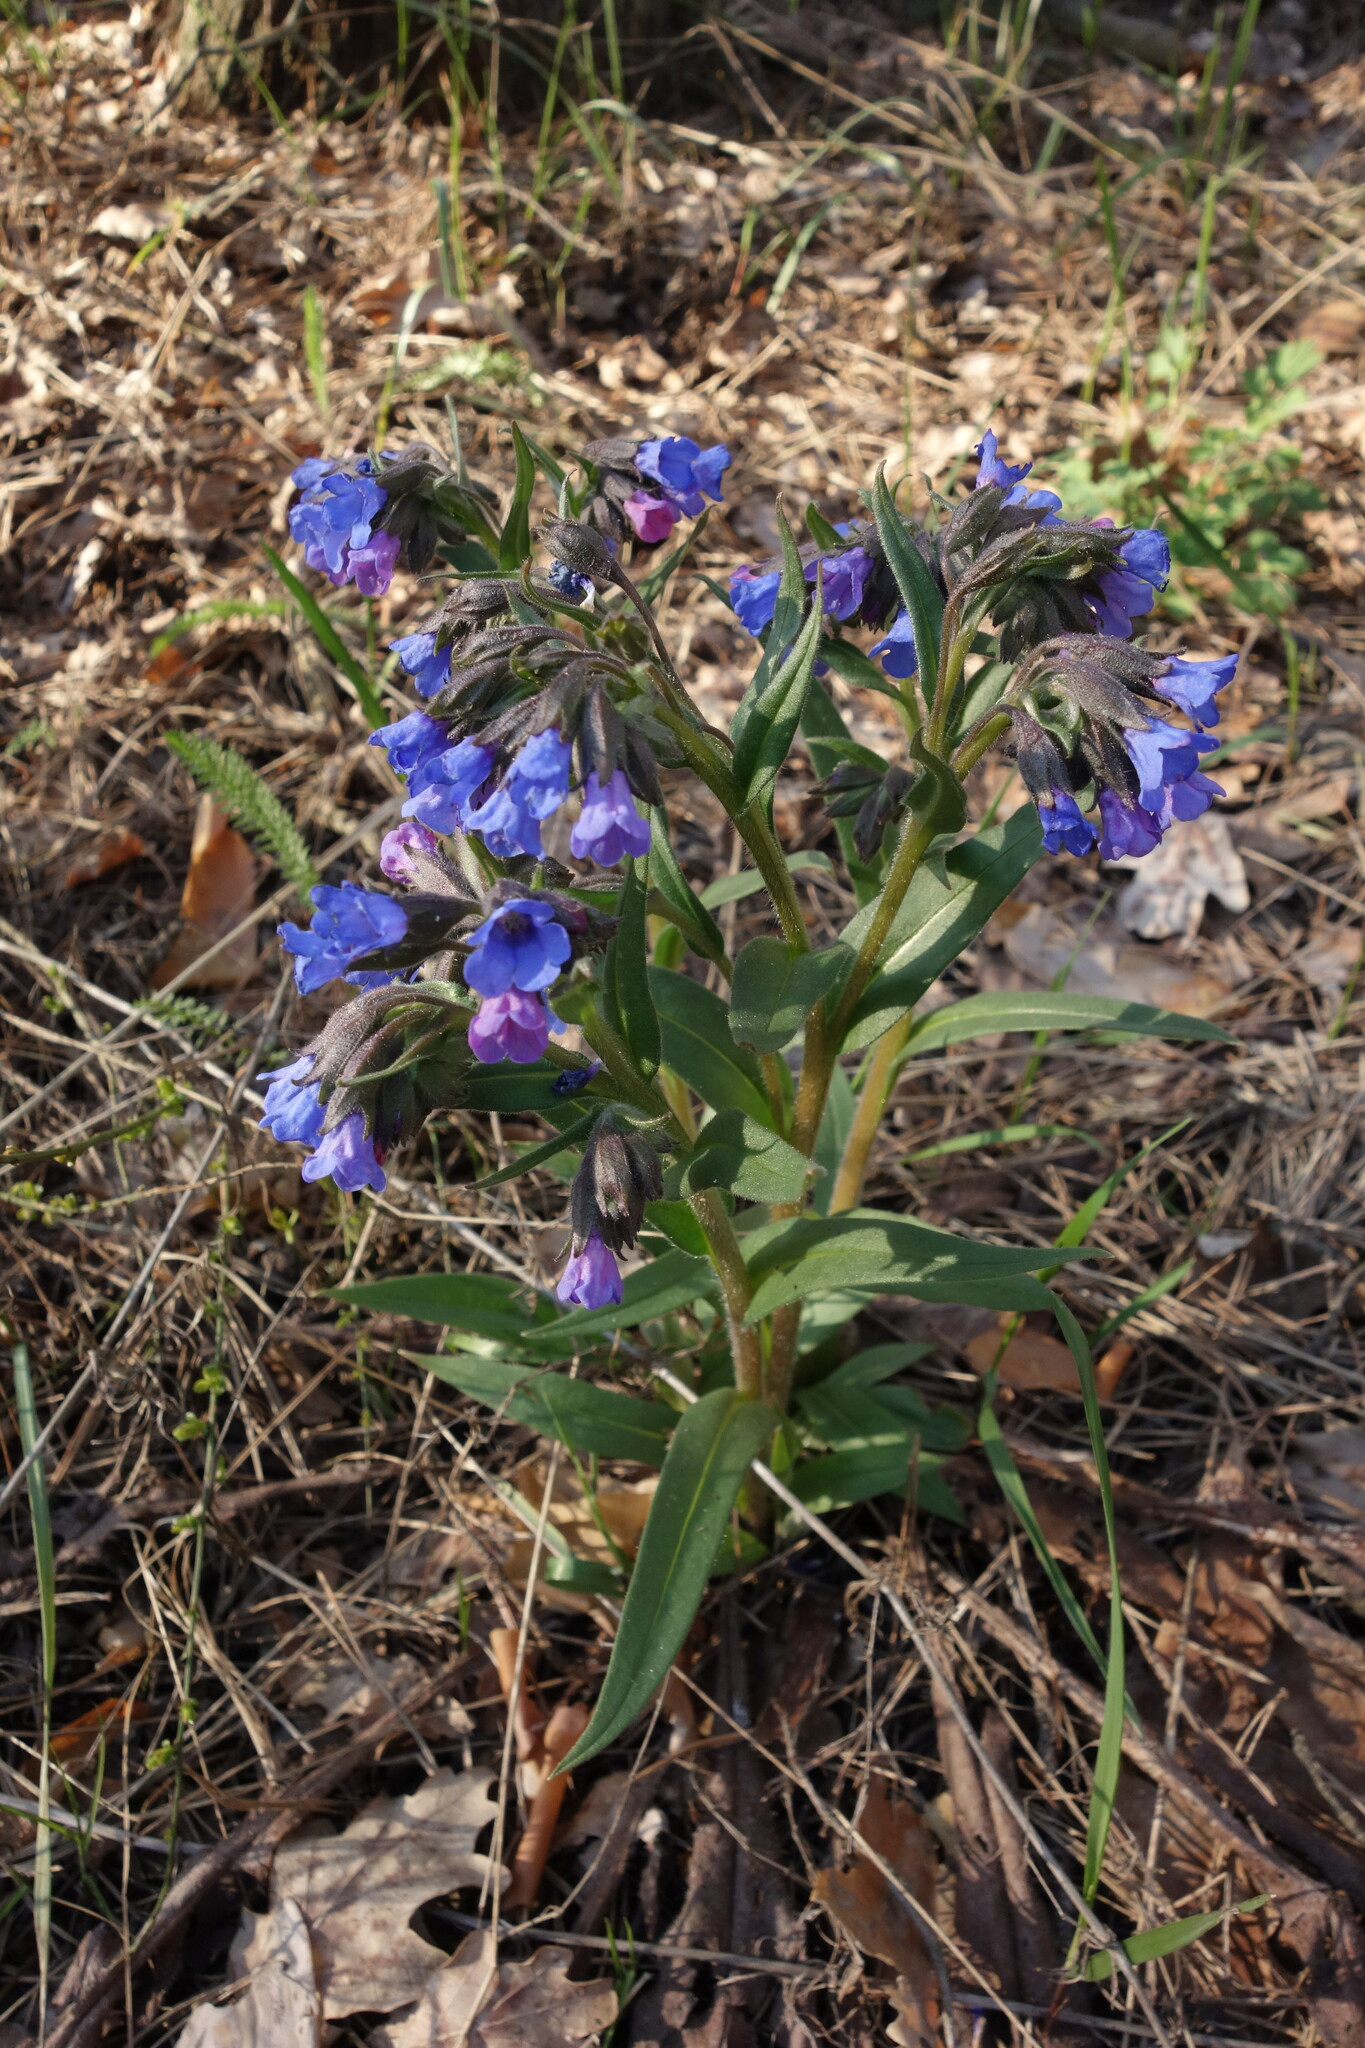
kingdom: Plantae
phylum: Tracheophyta
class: Magnoliopsida
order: Boraginales
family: Boraginaceae
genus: Pulmonaria
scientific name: Pulmonaria angustifolia
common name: Blue cowslip
